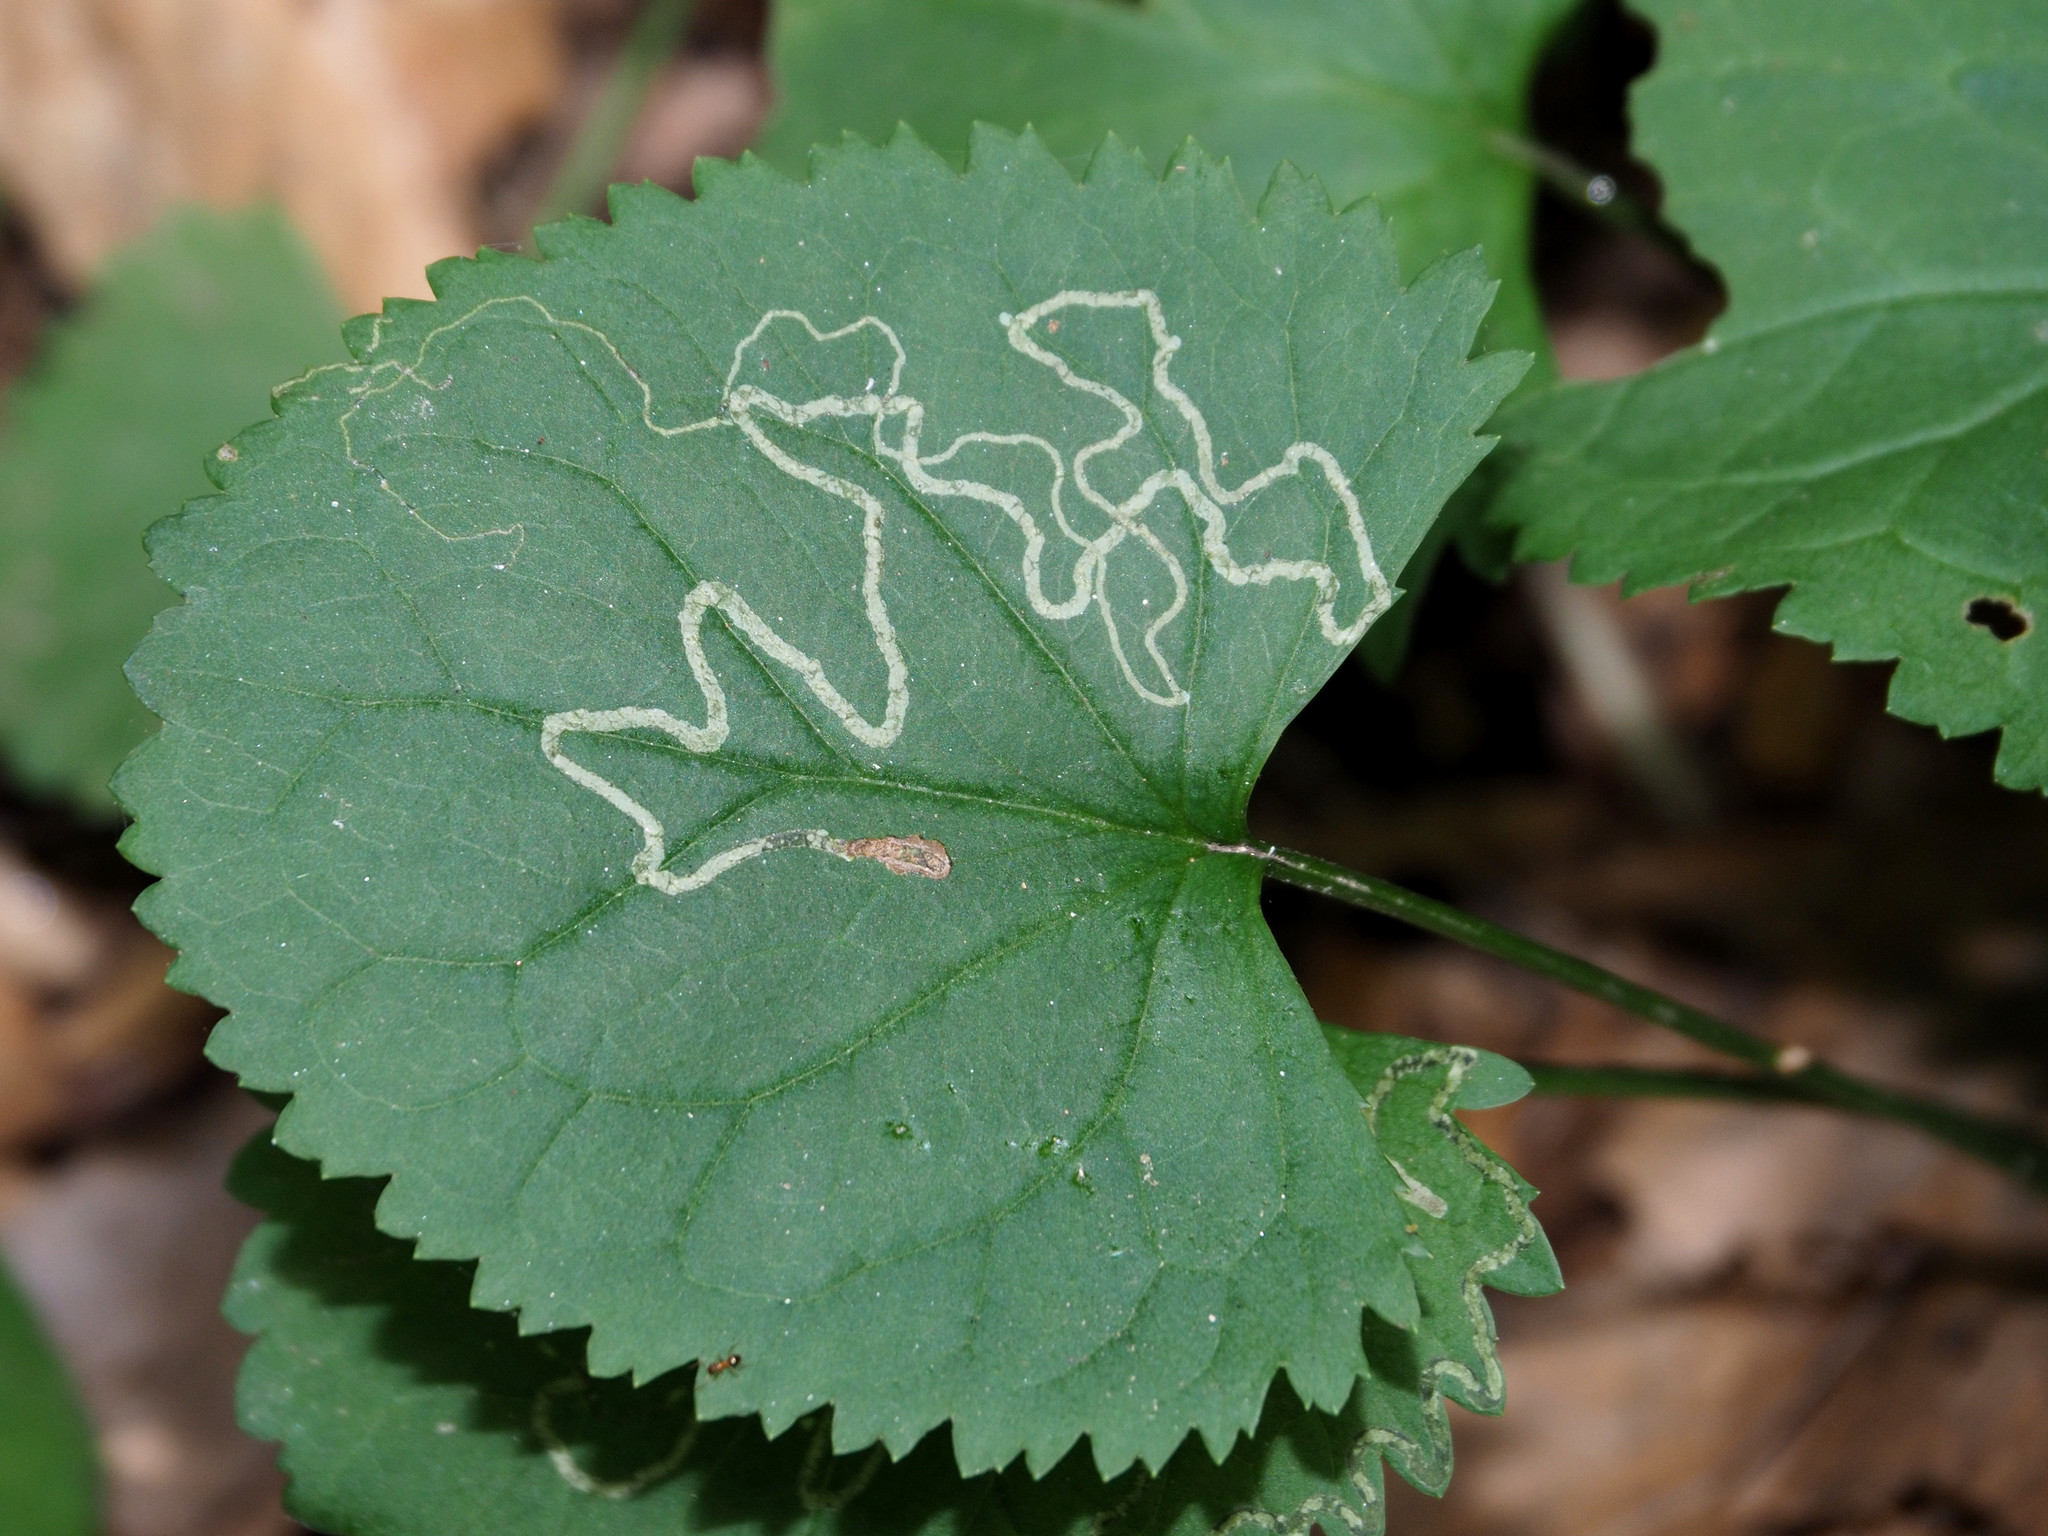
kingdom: Animalia
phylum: Arthropoda
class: Insecta
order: Lepidoptera
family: Gracillariidae
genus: Phyllocnistis
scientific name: Phyllocnistis insignis
